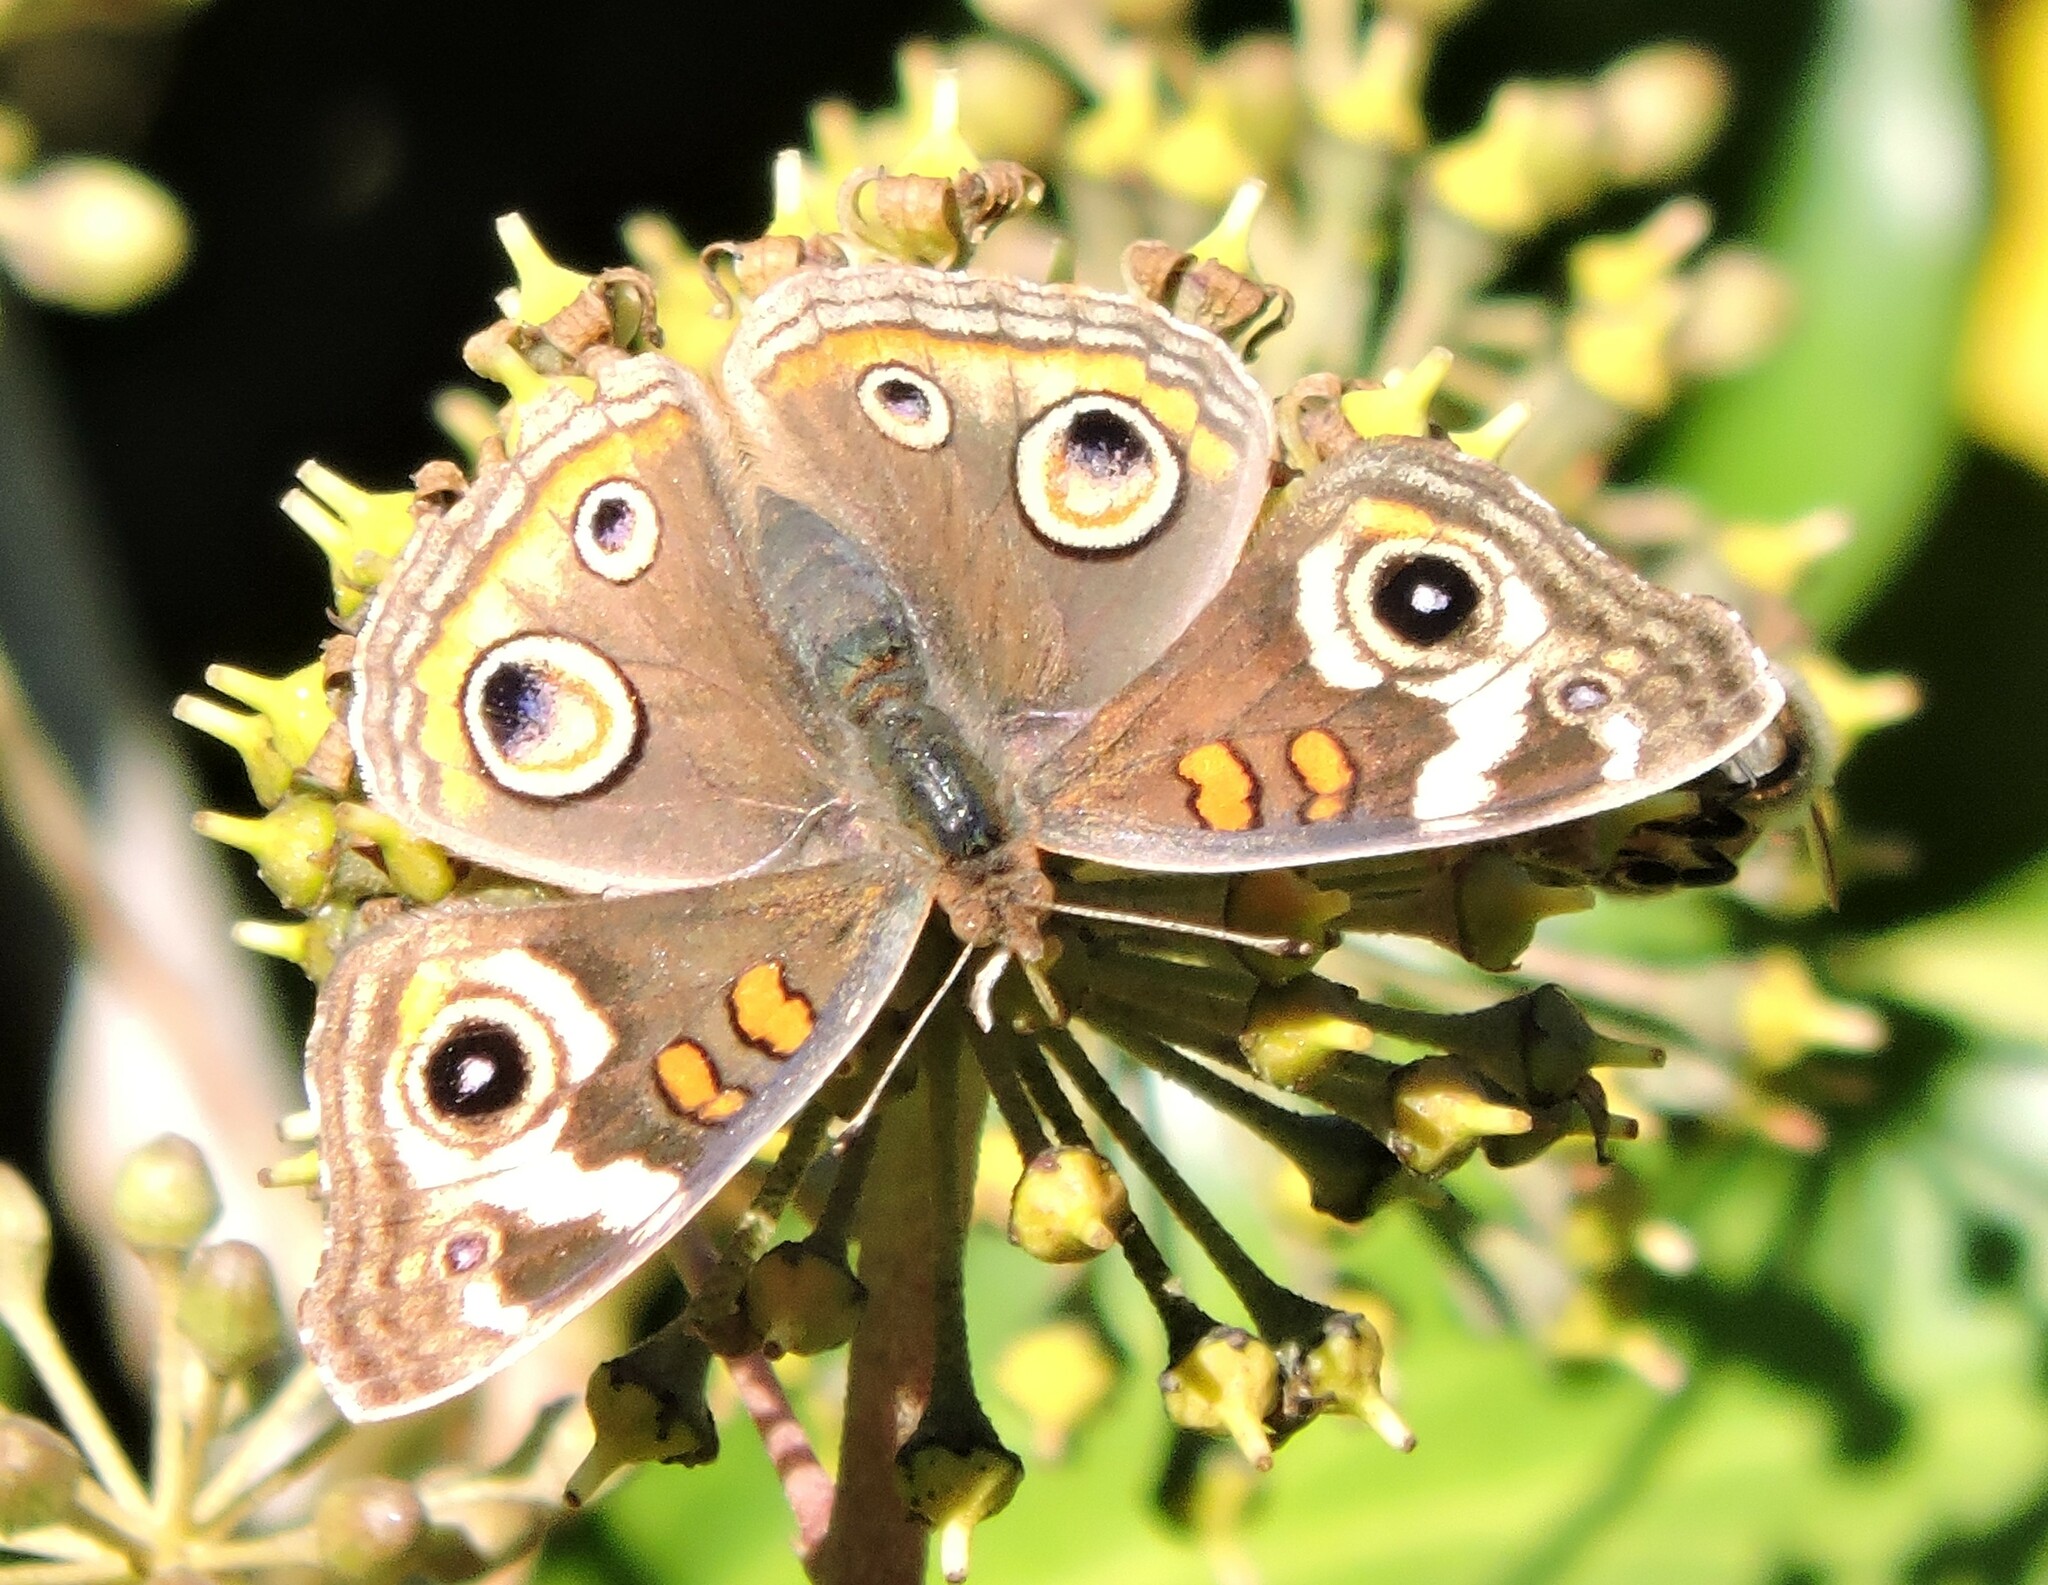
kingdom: Animalia
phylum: Arthropoda
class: Insecta
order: Lepidoptera
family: Nymphalidae
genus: Junonia
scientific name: Junonia grisea
